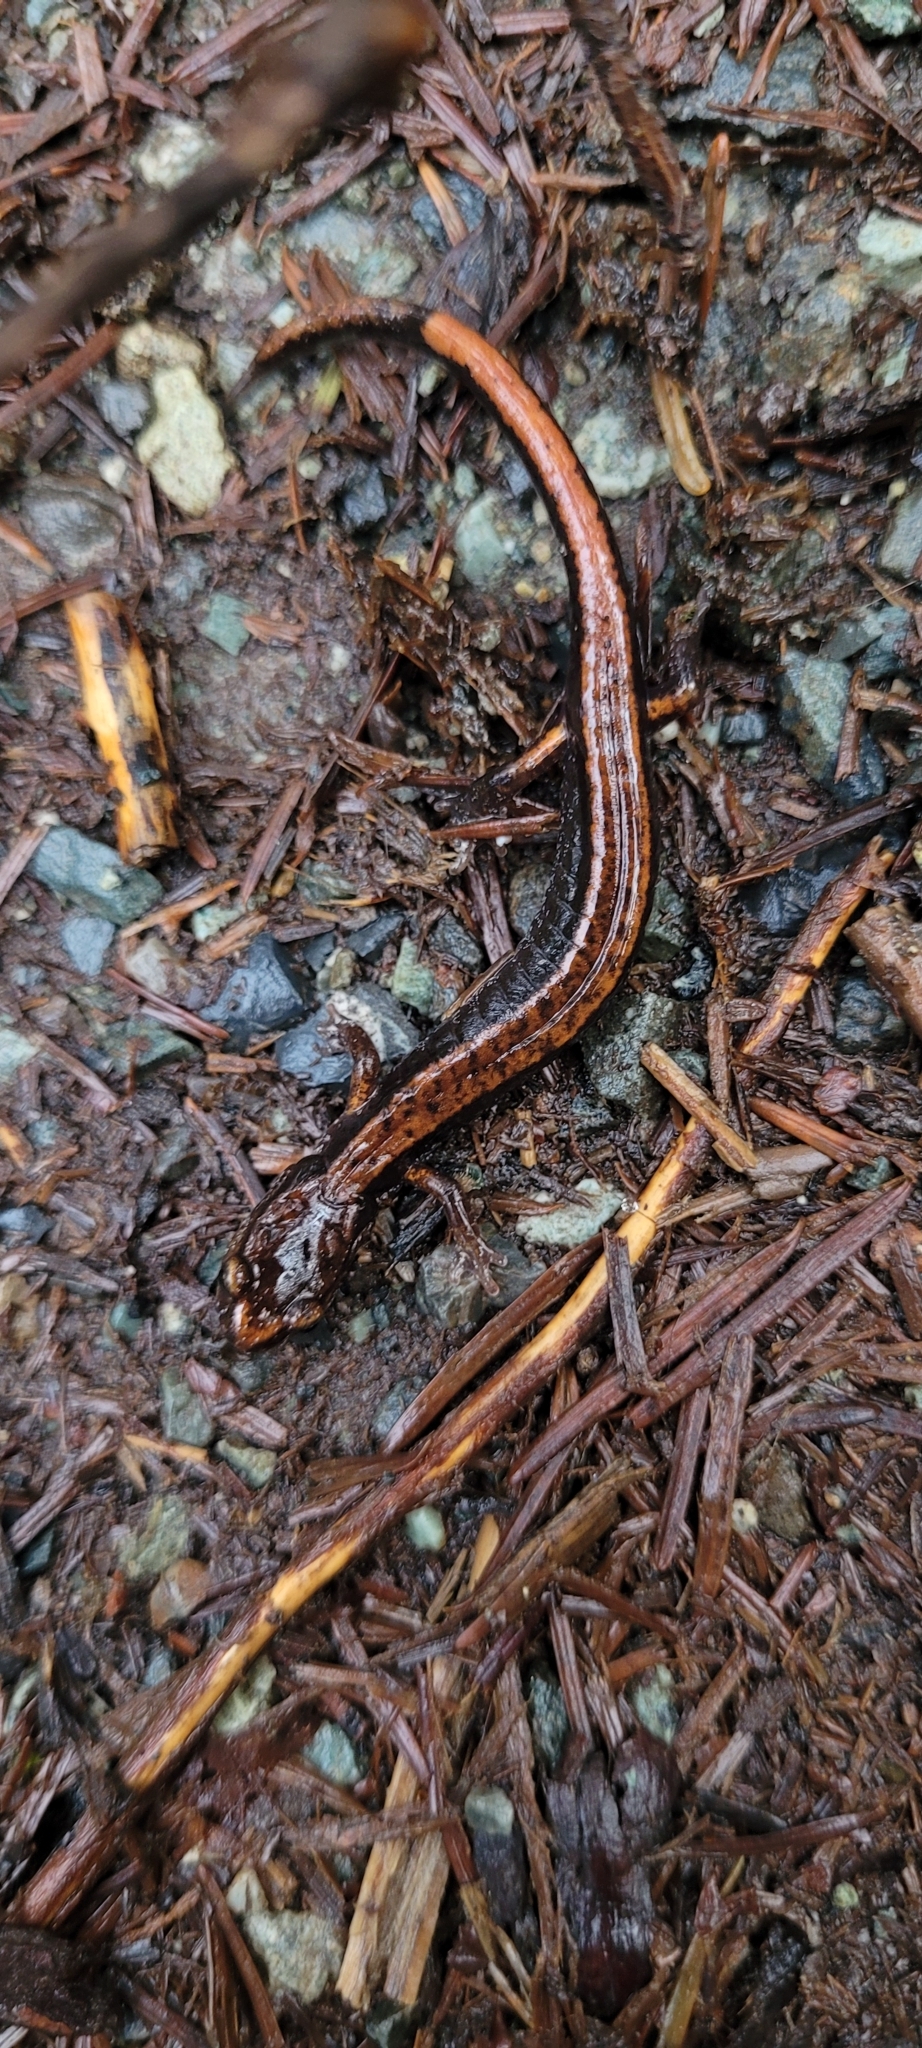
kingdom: Animalia
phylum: Chordata
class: Amphibia
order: Caudata
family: Plethodontidae
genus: Plethodon
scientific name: Plethodon vehiculum
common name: Western red-backed salamander
